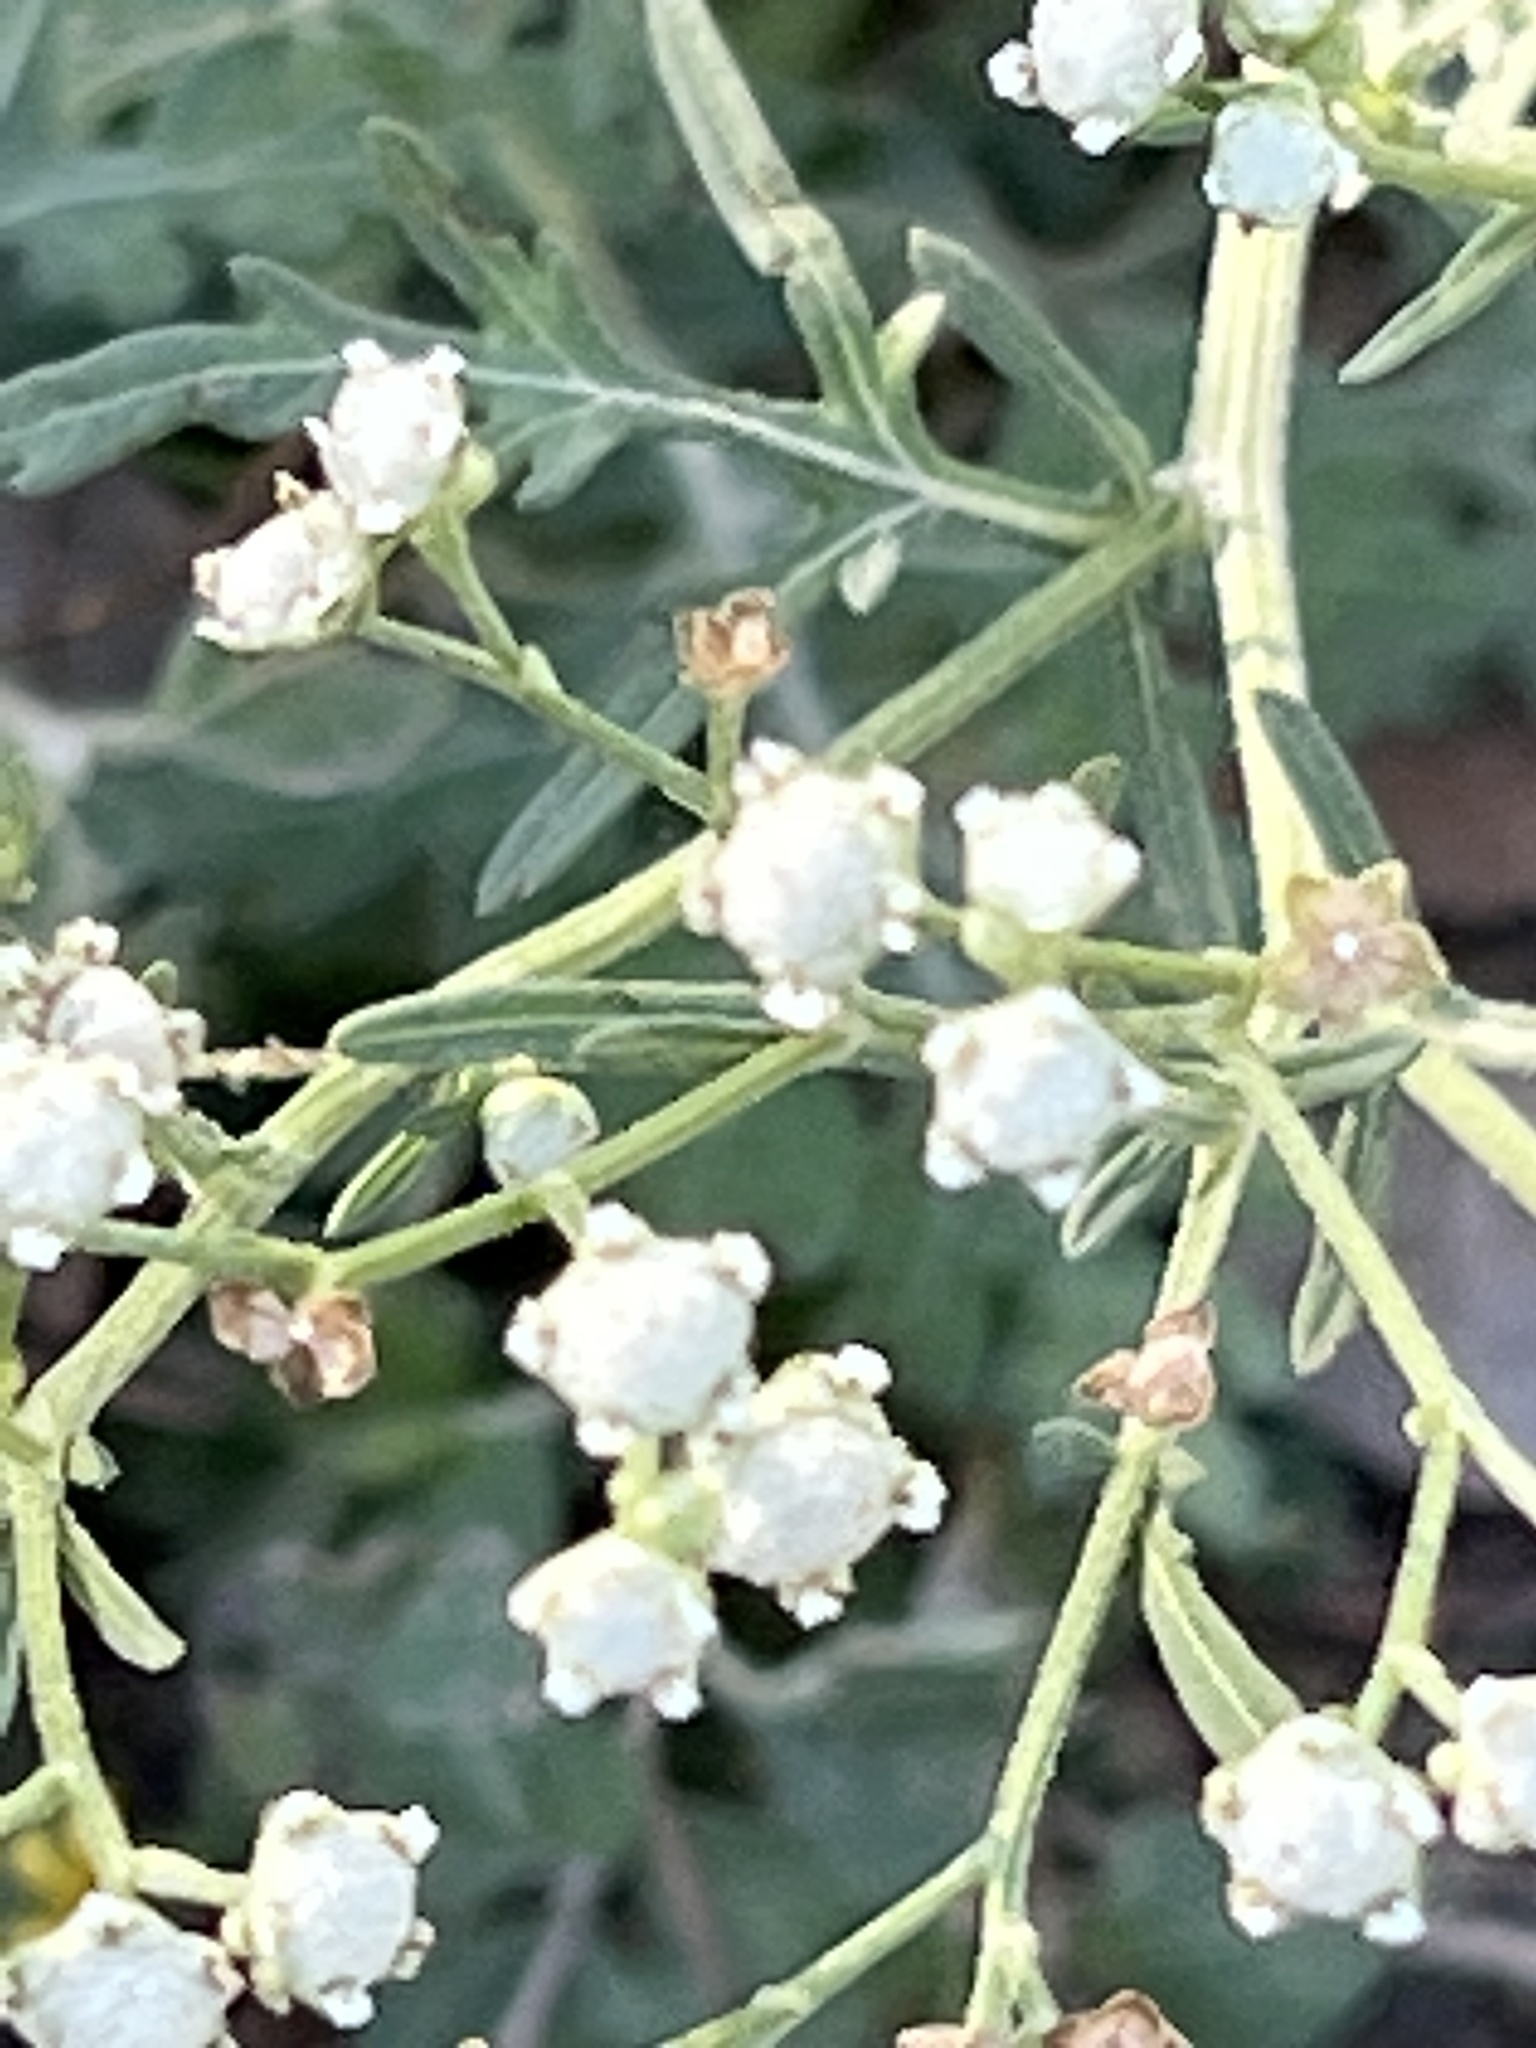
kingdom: Plantae
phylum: Tracheophyta
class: Magnoliopsida
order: Asterales
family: Asteraceae
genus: Parthenium
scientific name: Parthenium hysterophorus
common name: Santa maria feverfew
